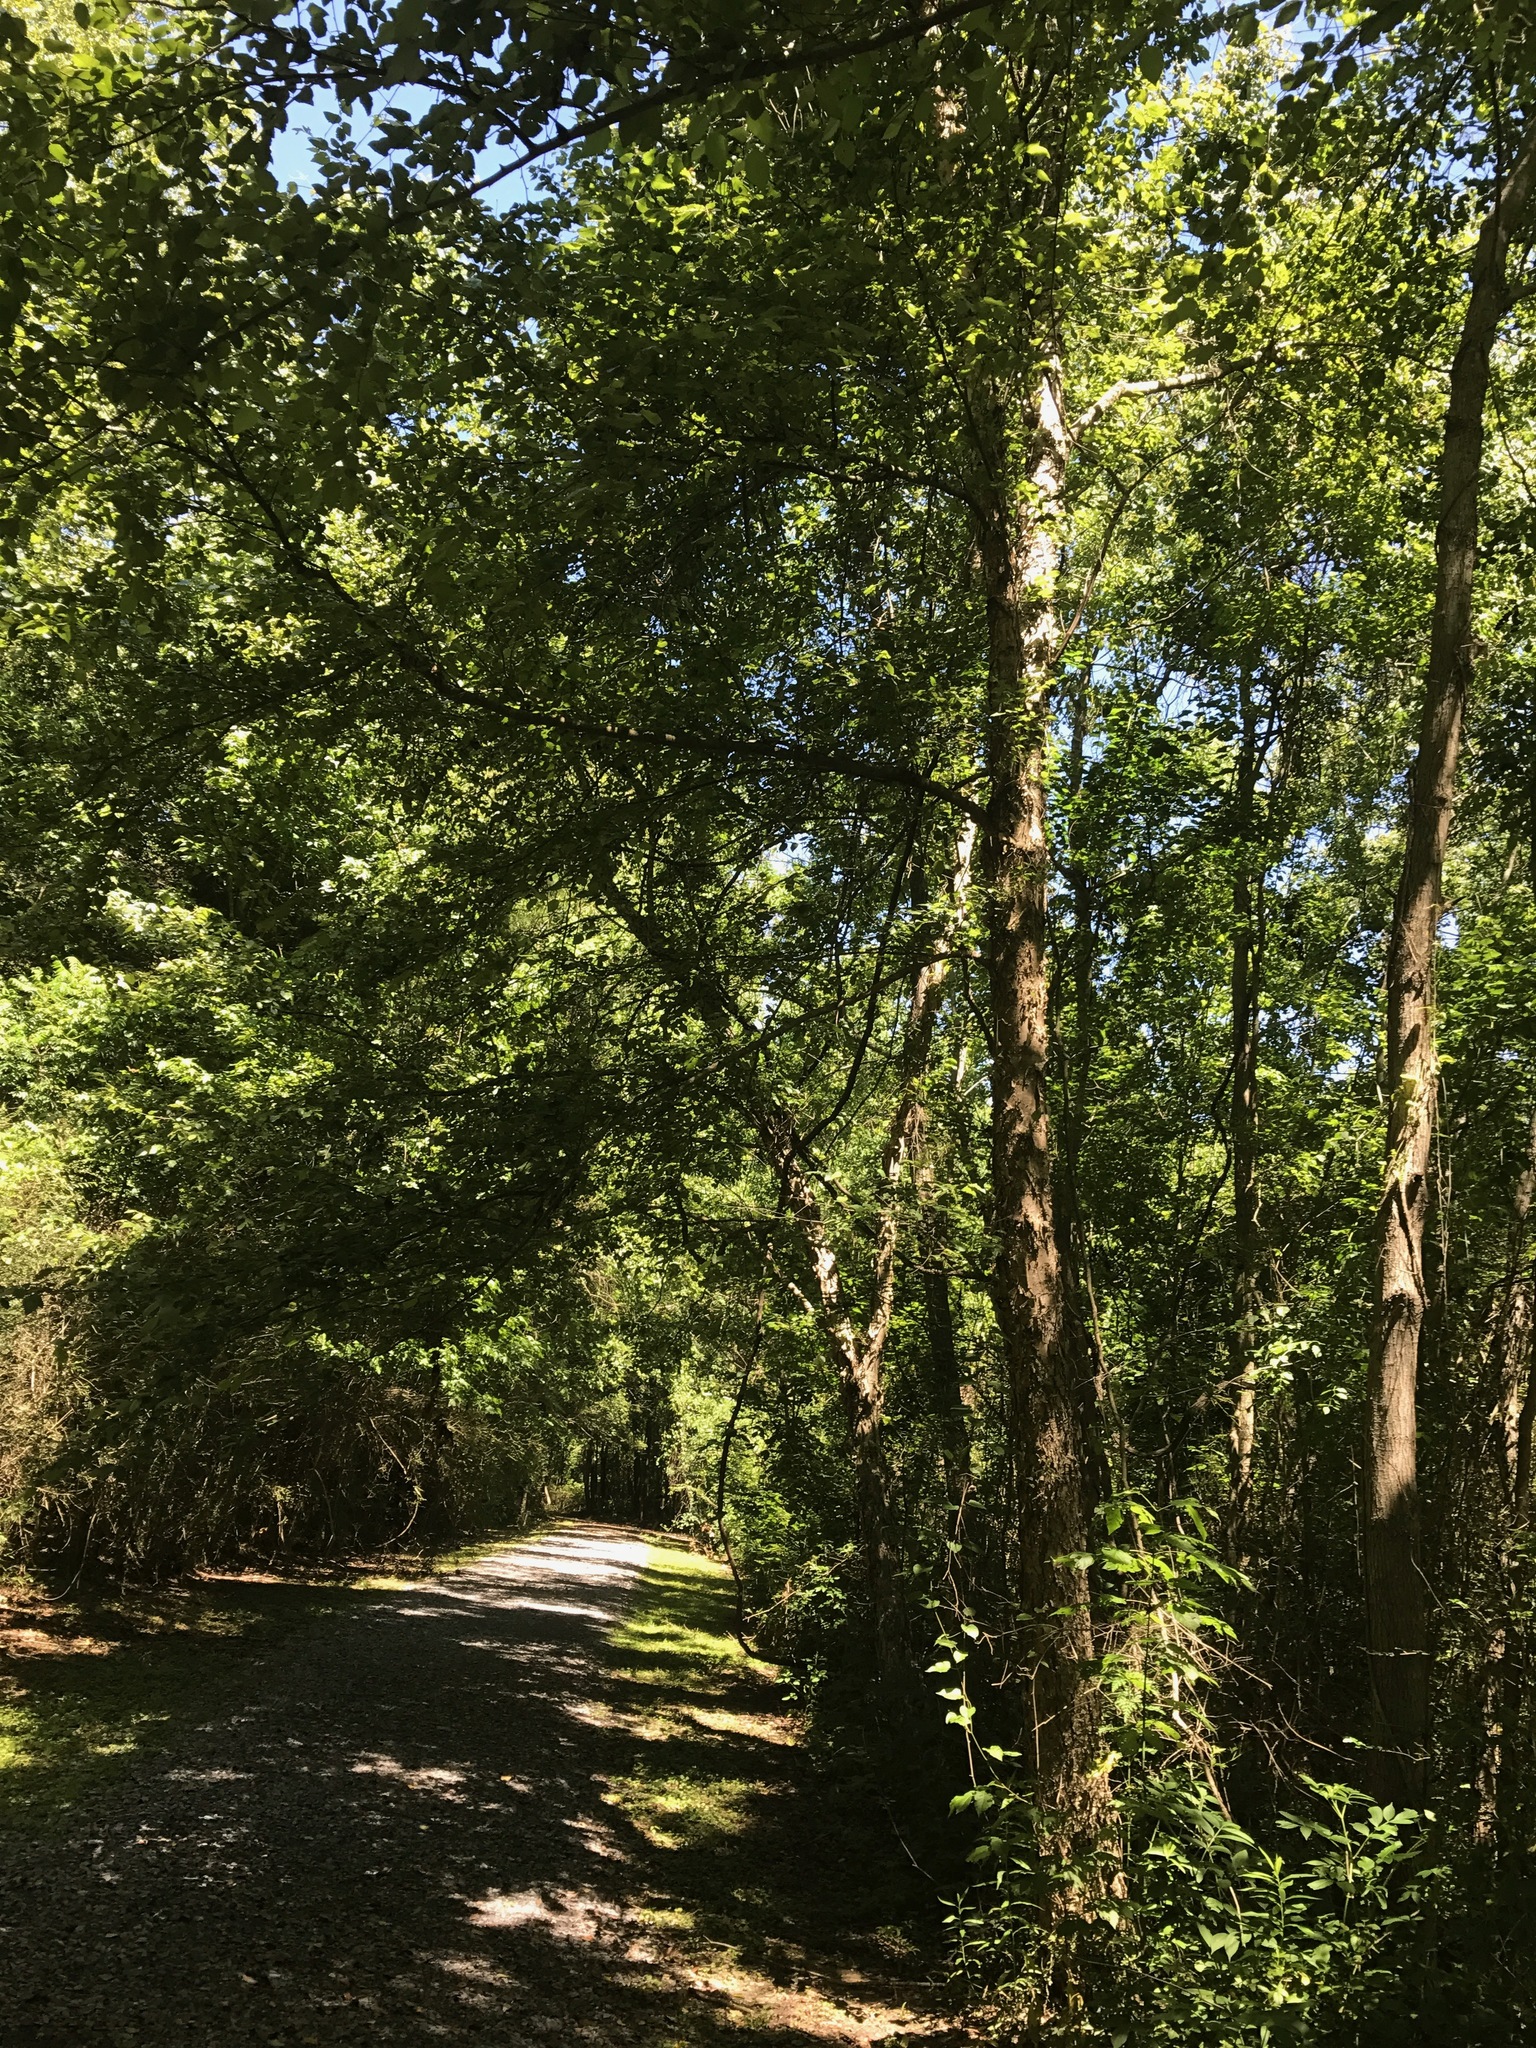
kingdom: Plantae
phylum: Tracheophyta
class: Magnoliopsida
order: Fagales
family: Betulaceae
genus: Betula
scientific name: Betula nigra
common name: Black birch
